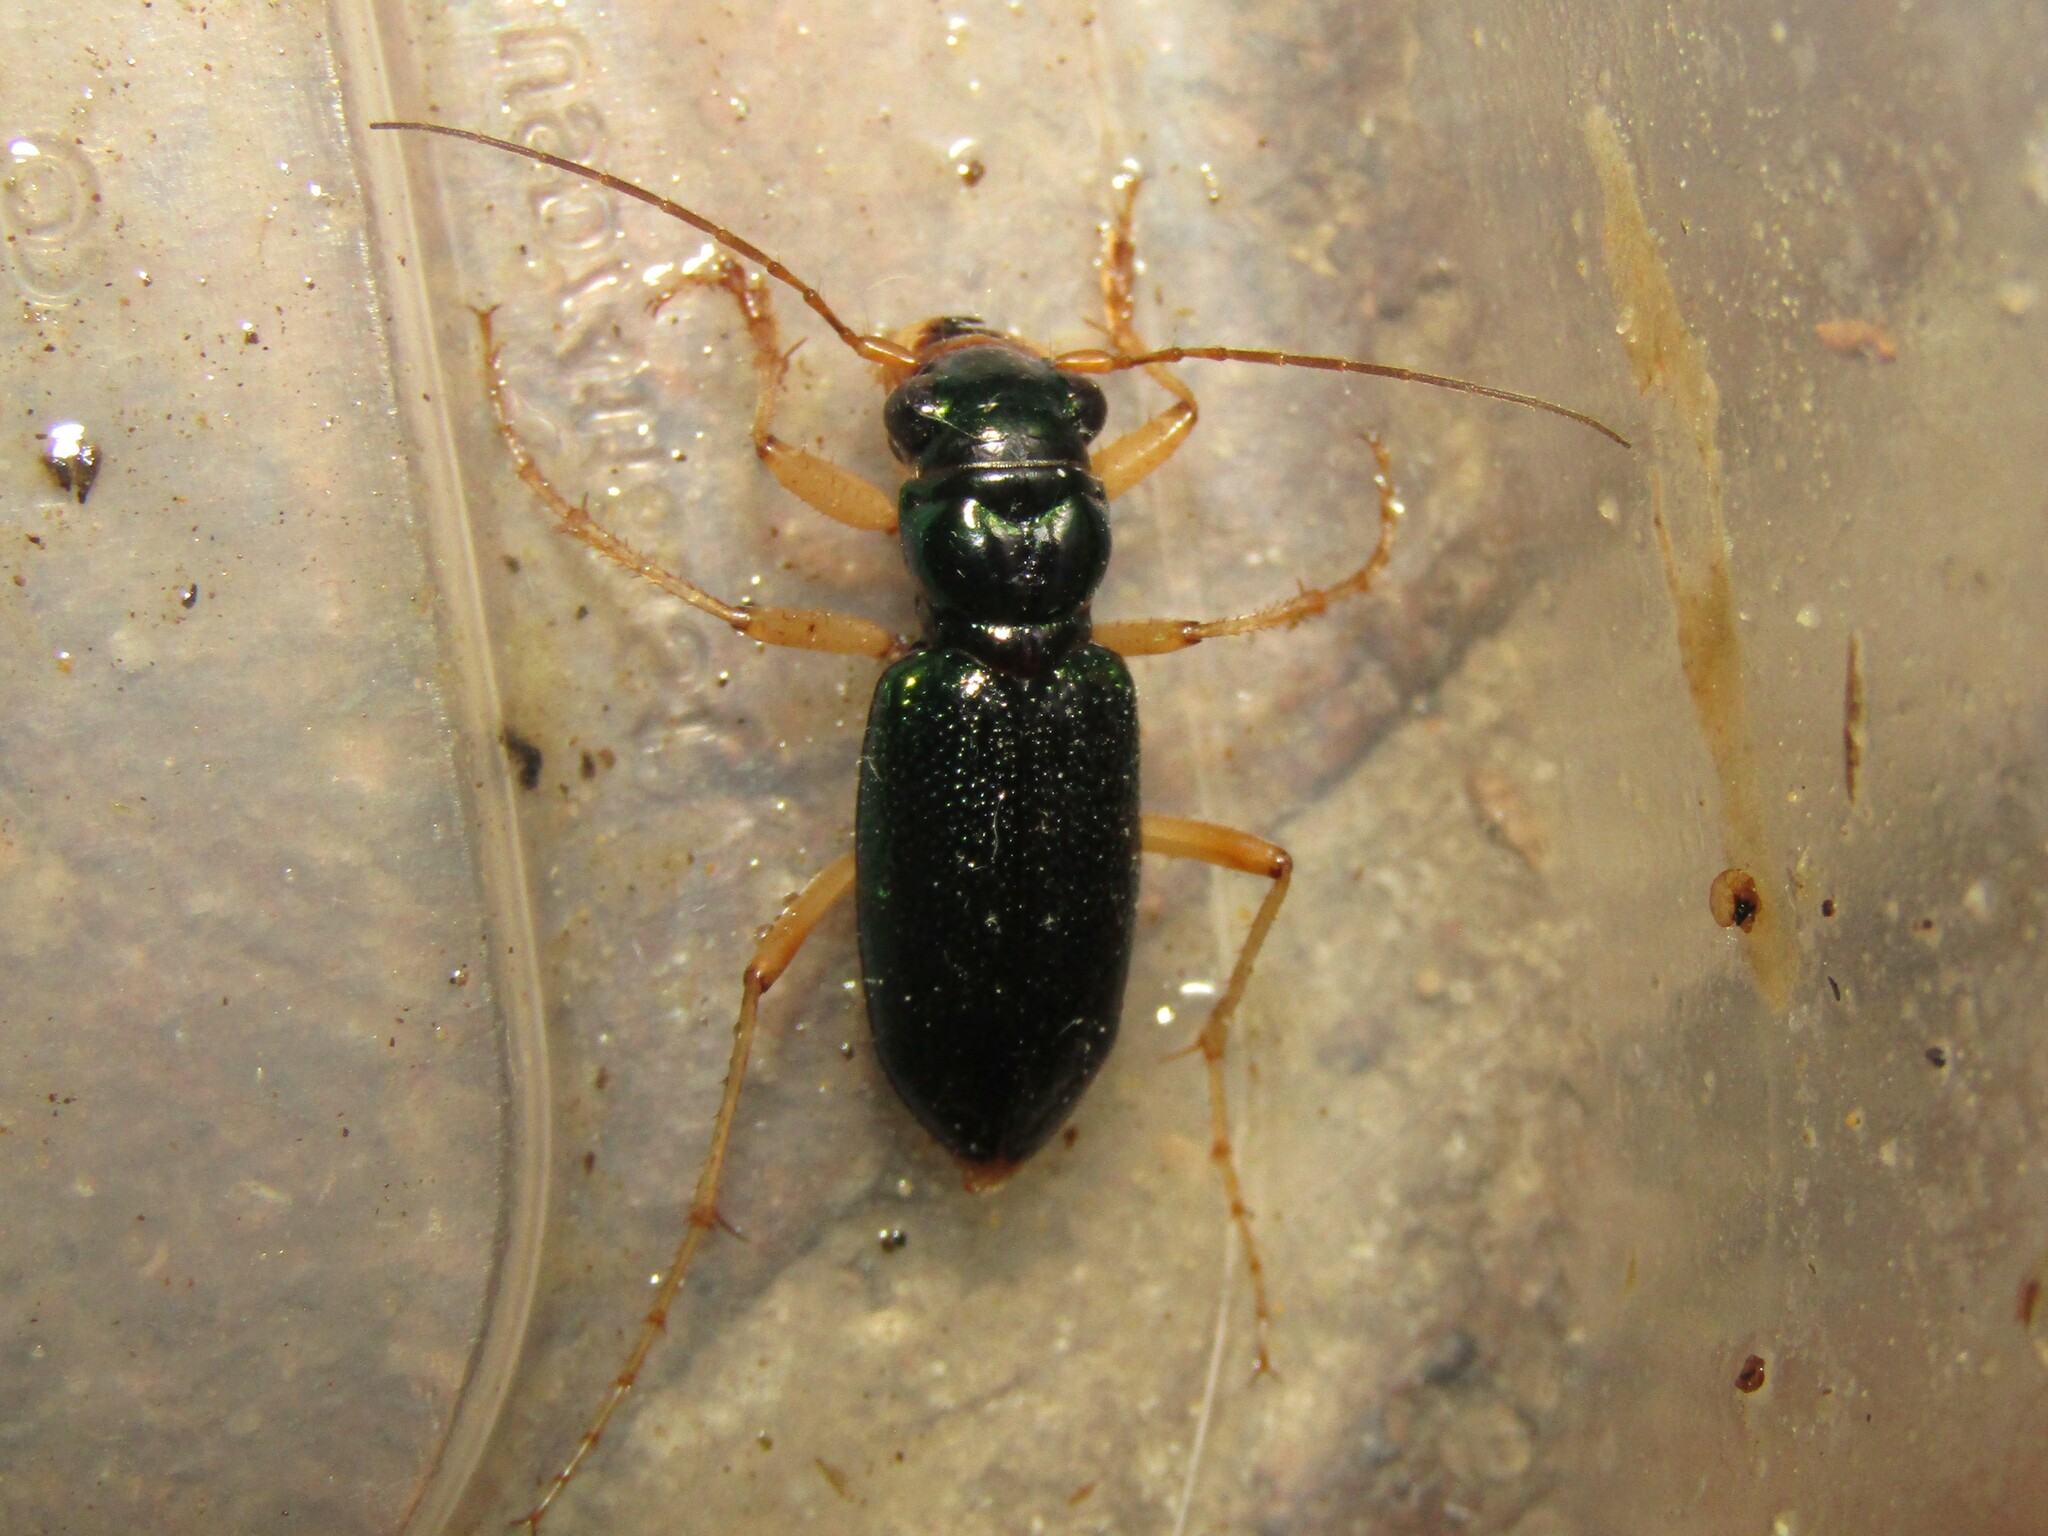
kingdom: Animalia
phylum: Arthropoda
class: Insecta
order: Coleoptera
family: Carabidae
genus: Tetracha
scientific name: Tetracha virginica
